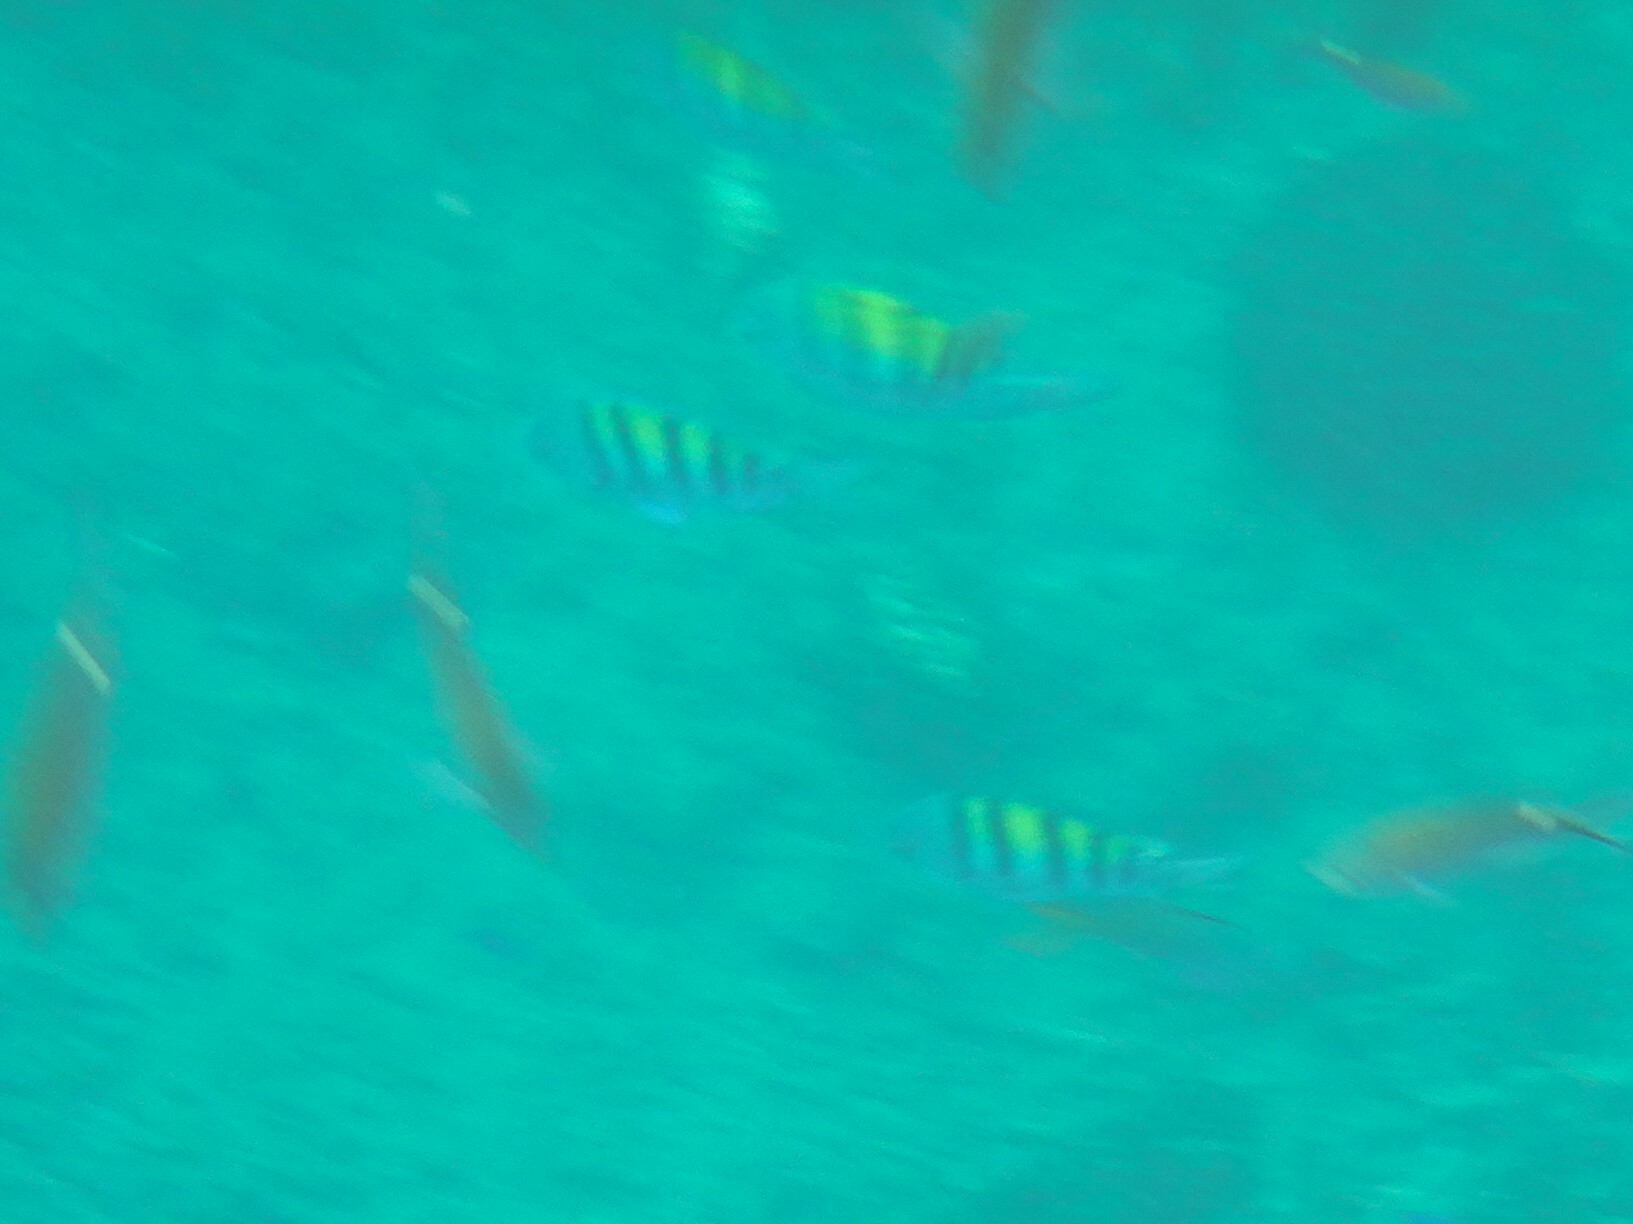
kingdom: Animalia
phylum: Chordata
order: Perciformes
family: Pomacentridae
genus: Abudefduf
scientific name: Abudefduf troschelii
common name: Panamic sergeant major
